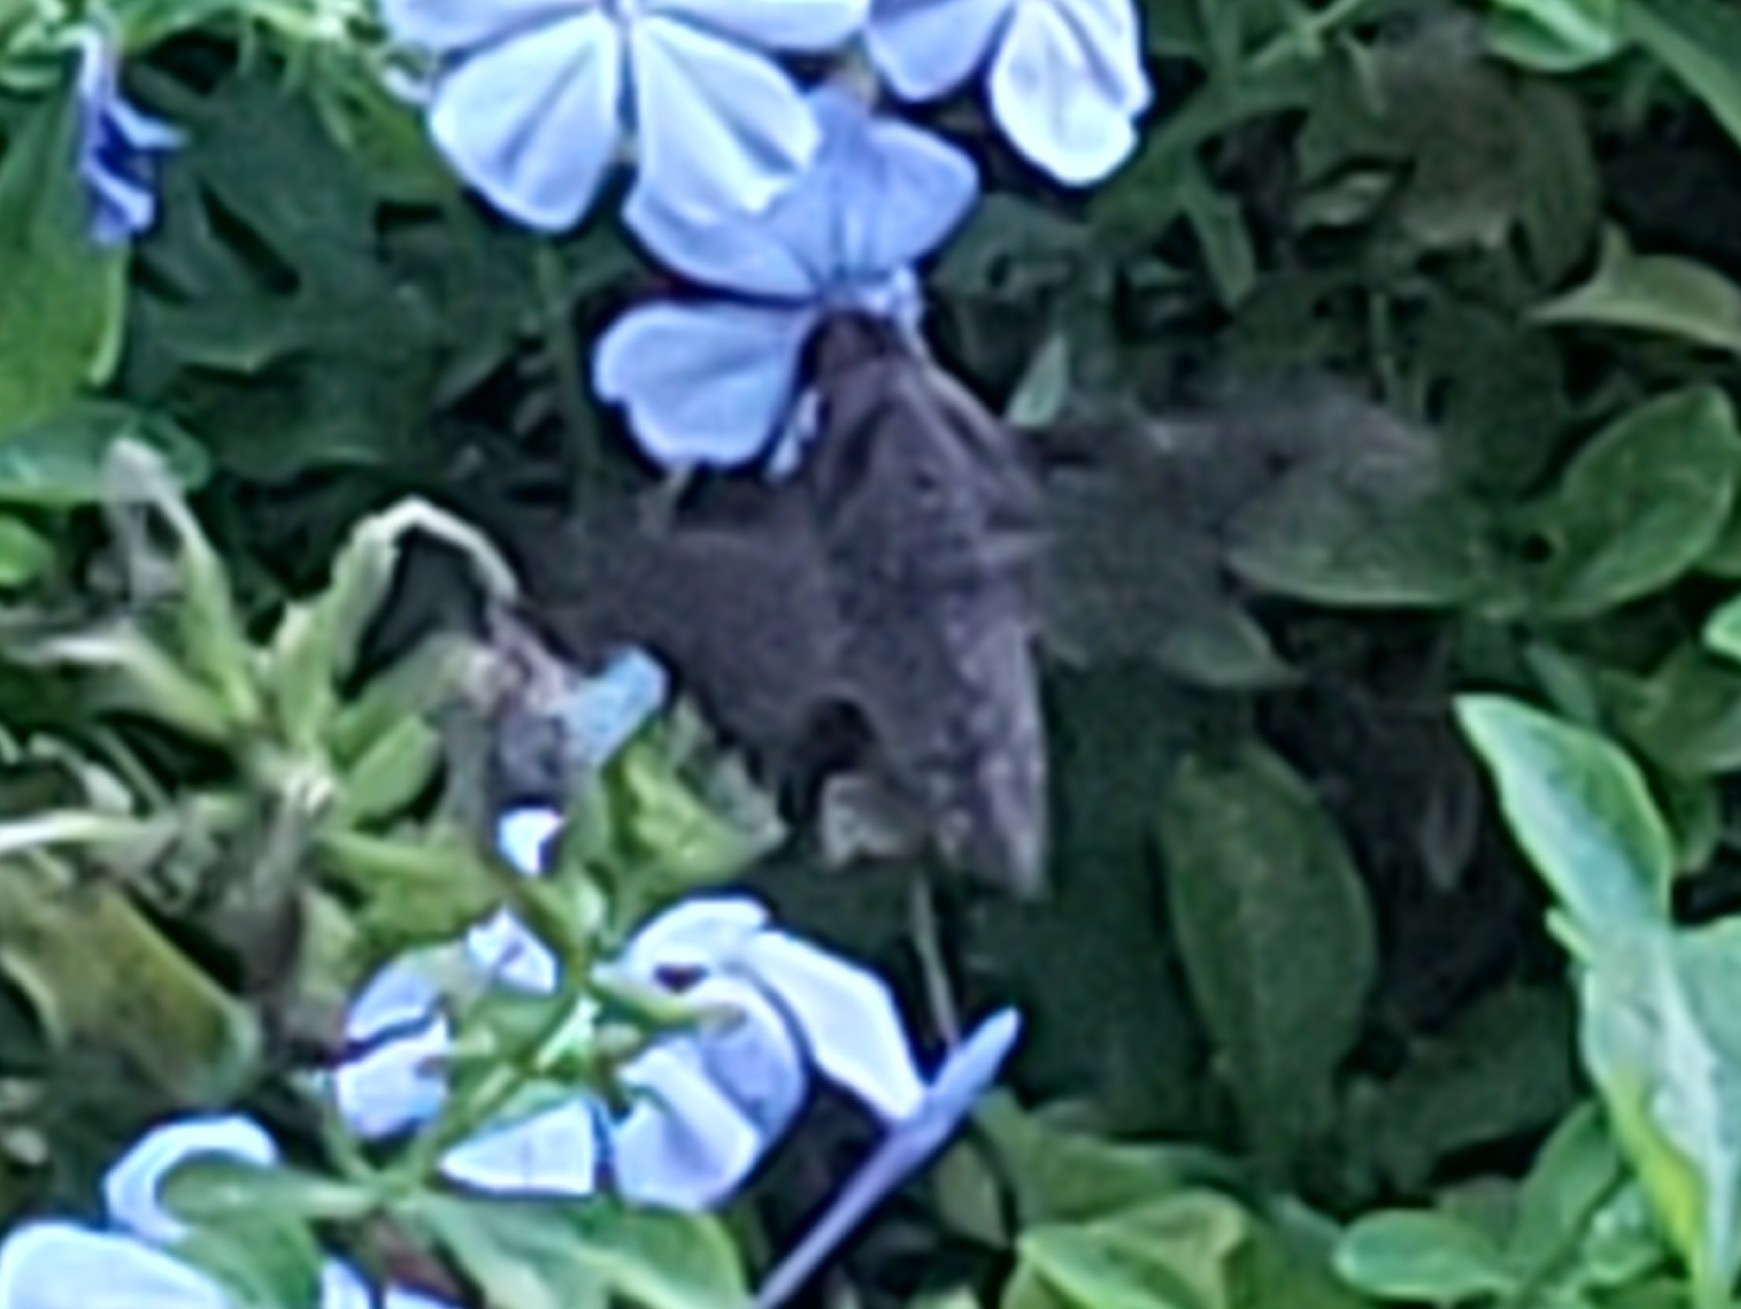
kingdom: Animalia
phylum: Arthropoda
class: Insecta
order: Lepidoptera
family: Sphingidae
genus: Enyo
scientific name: Enyo lugubris
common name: Mournful sphinx
